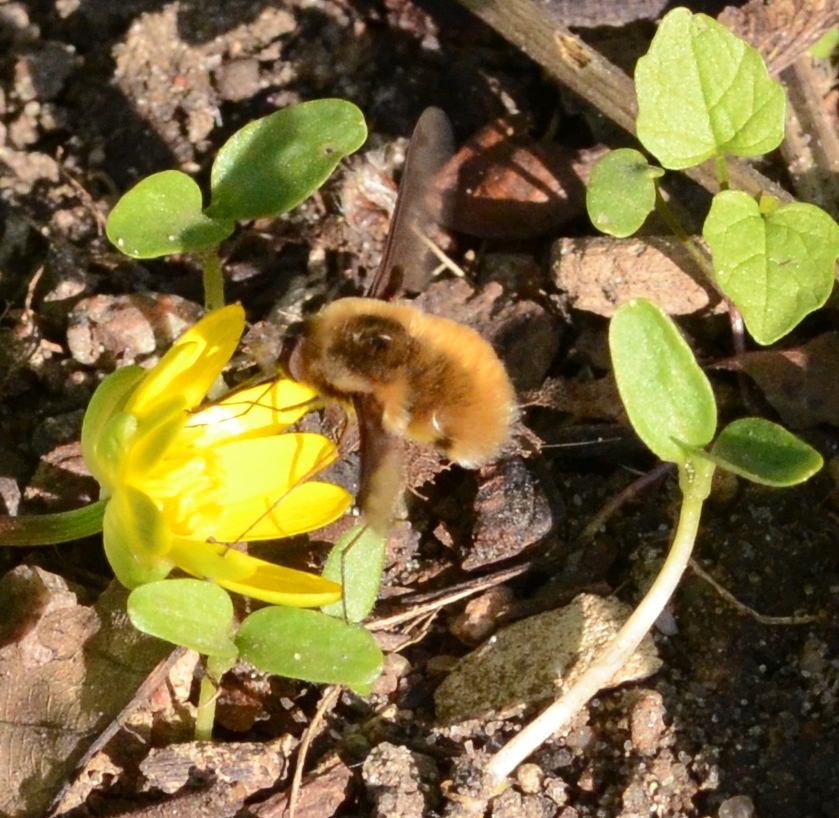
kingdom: Animalia
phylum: Arthropoda
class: Insecta
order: Diptera
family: Bombyliidae
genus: Bombylius
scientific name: Bombylius major
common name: Bee fly
